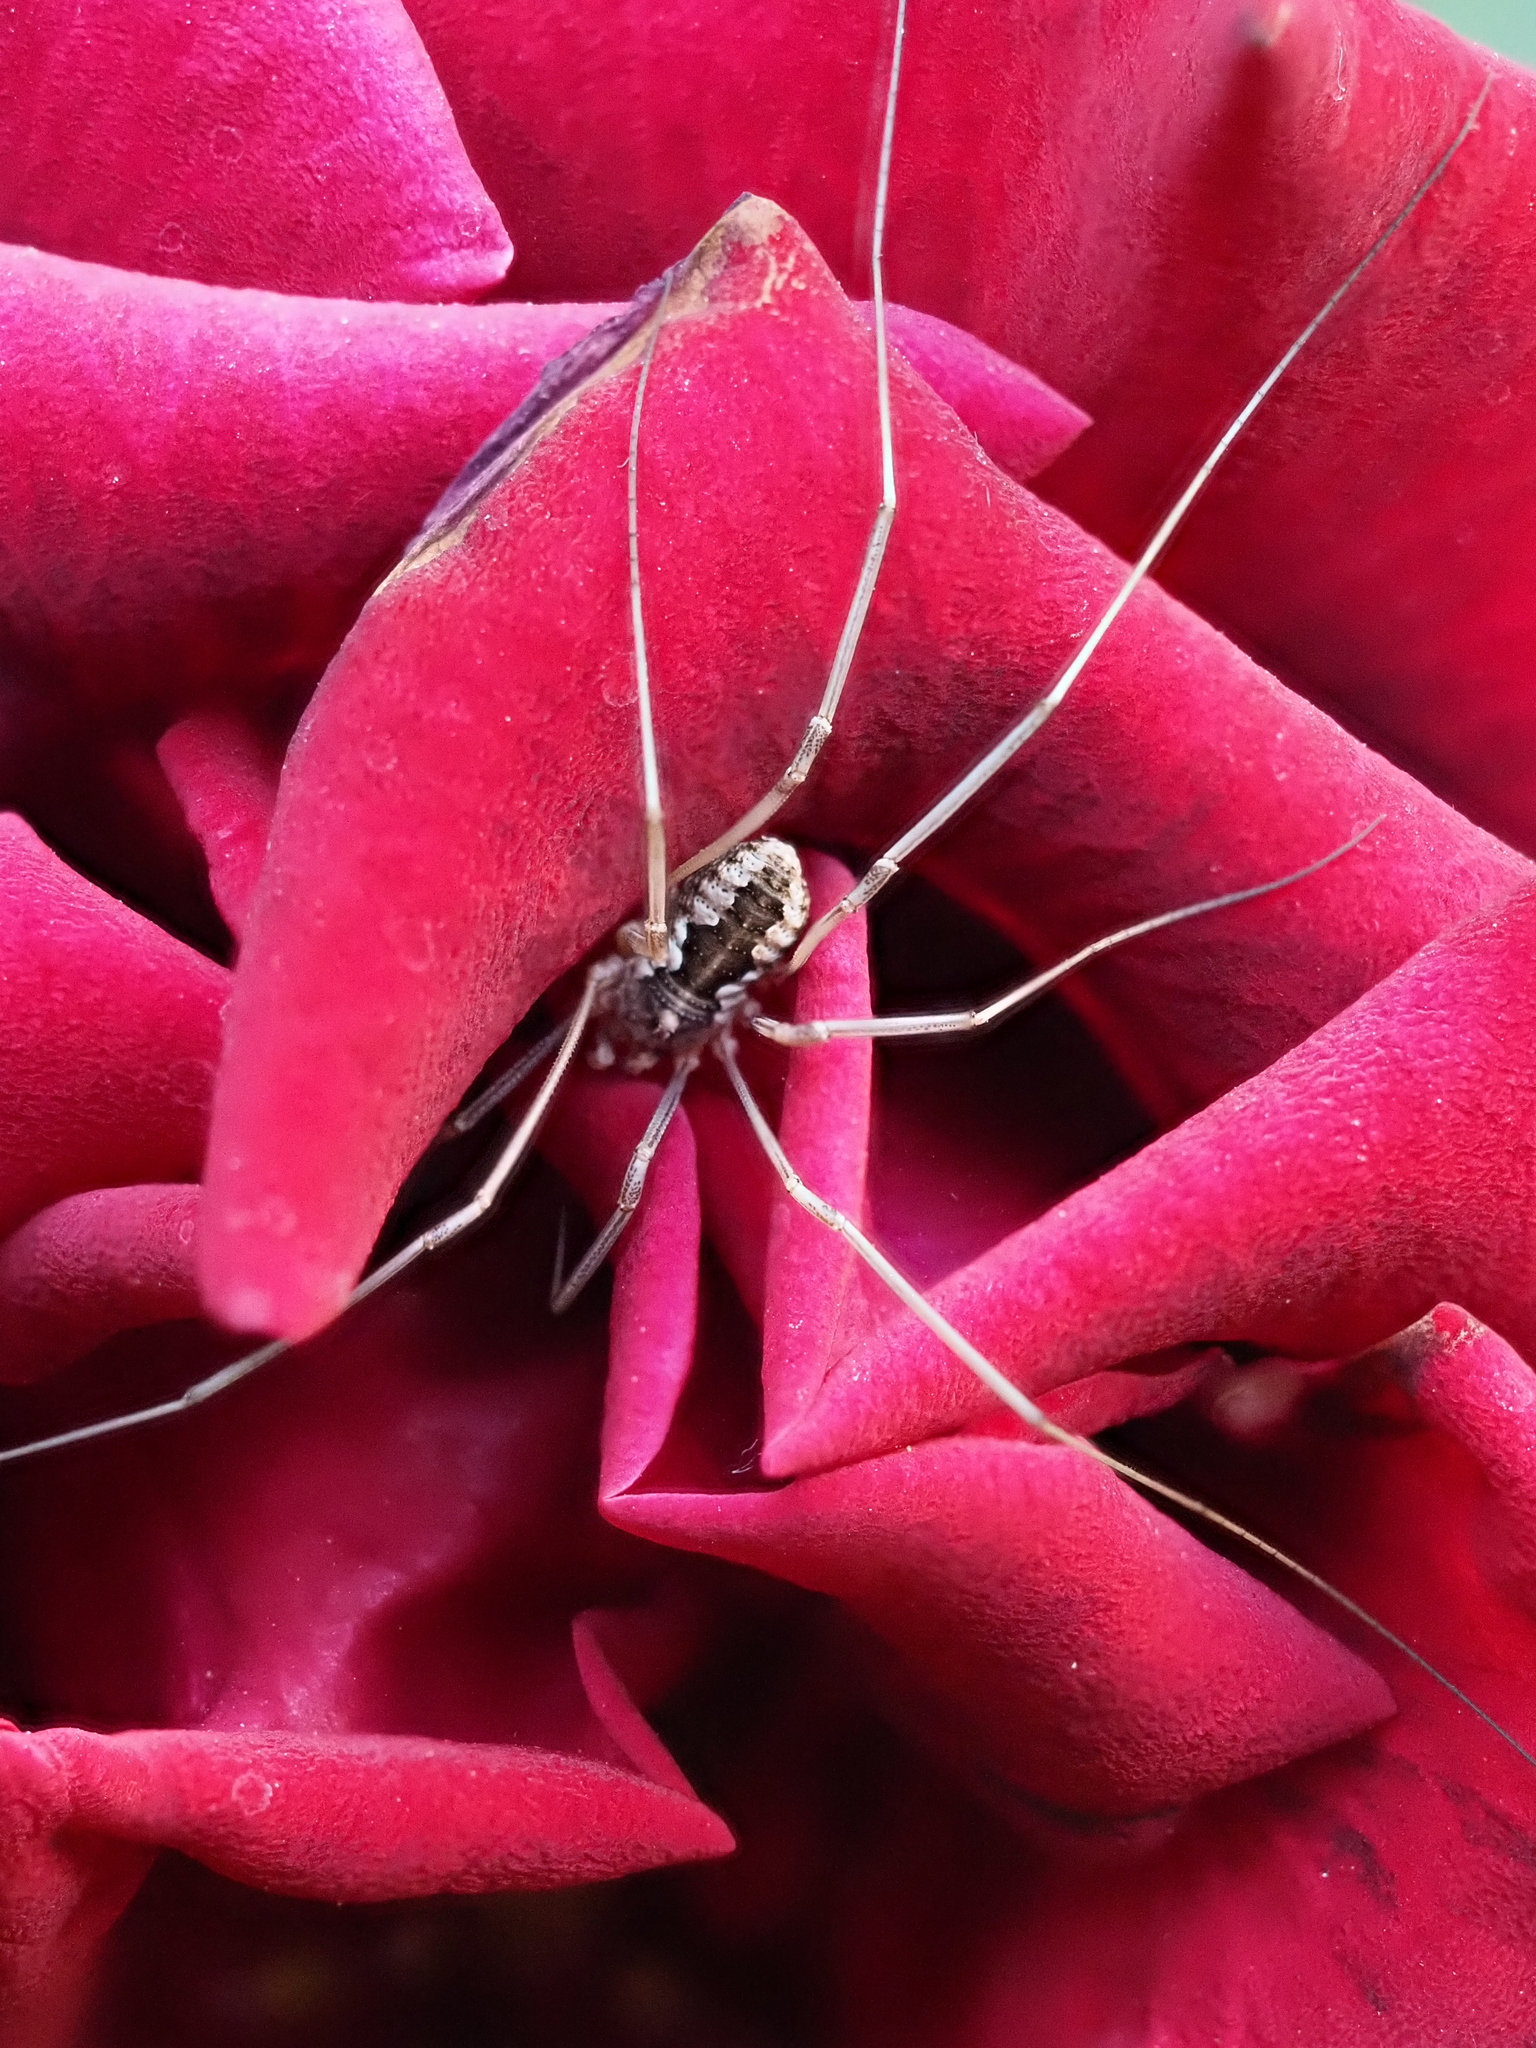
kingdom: Animalia
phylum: Arthropoda
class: Arachnida
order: Opiliones
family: Phalangiidae
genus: Phalangium
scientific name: Phalangium opilio
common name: Daddy longleg
